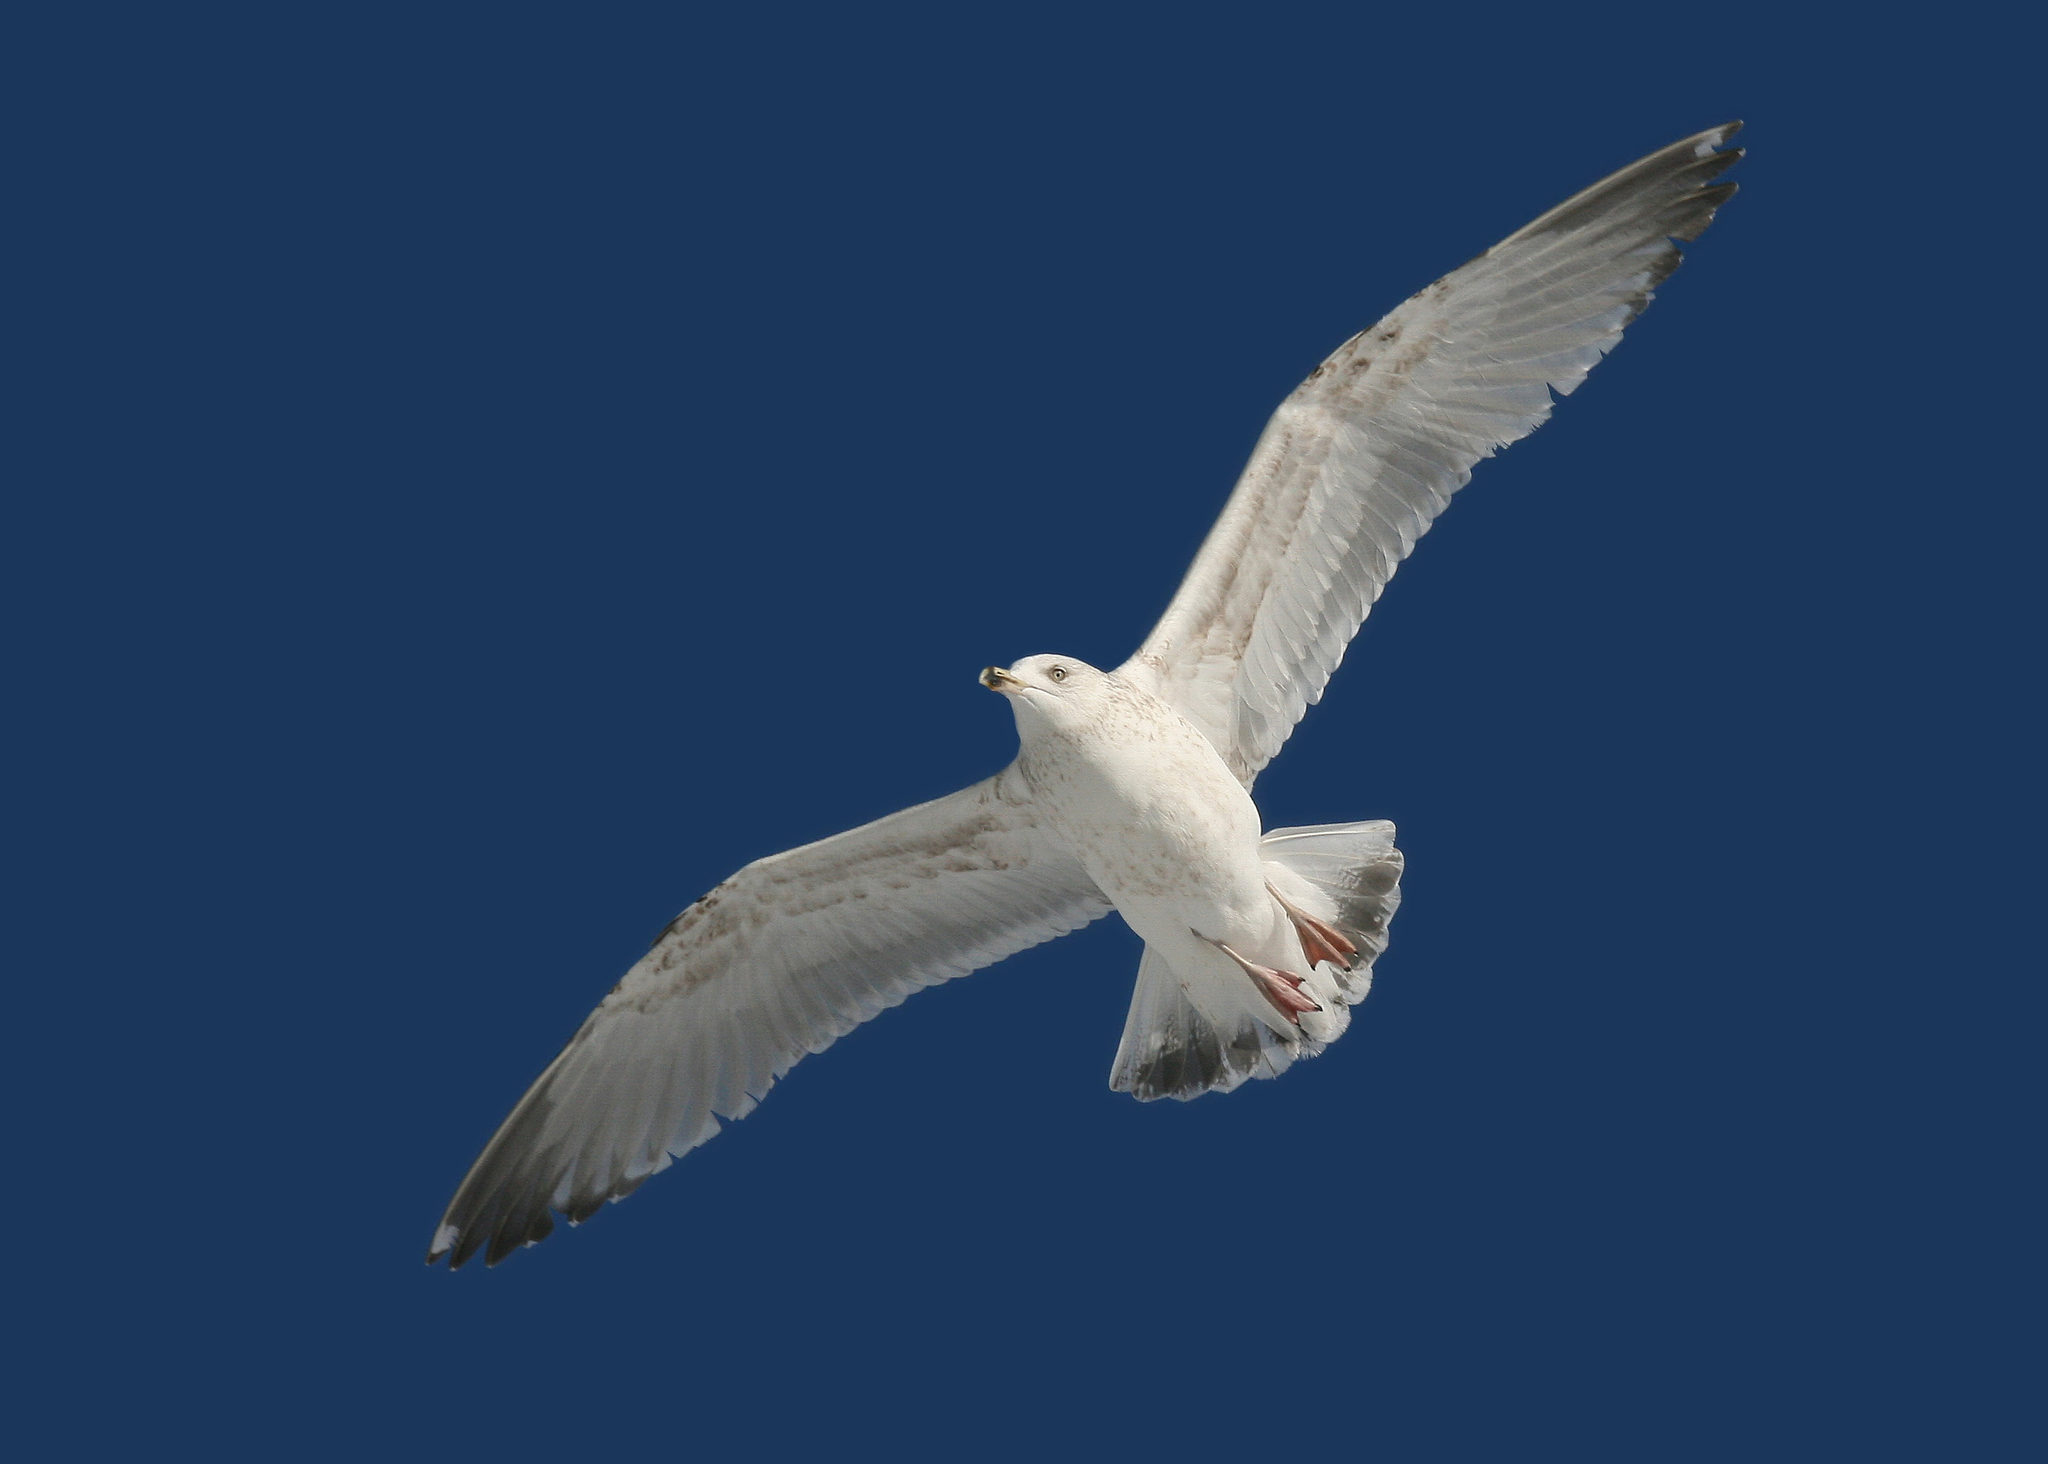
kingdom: Animalia
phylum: Chordata
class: Aves
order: Charadriiformes
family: Laridae
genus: Larus
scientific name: Larus argentatus
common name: Herring gull
